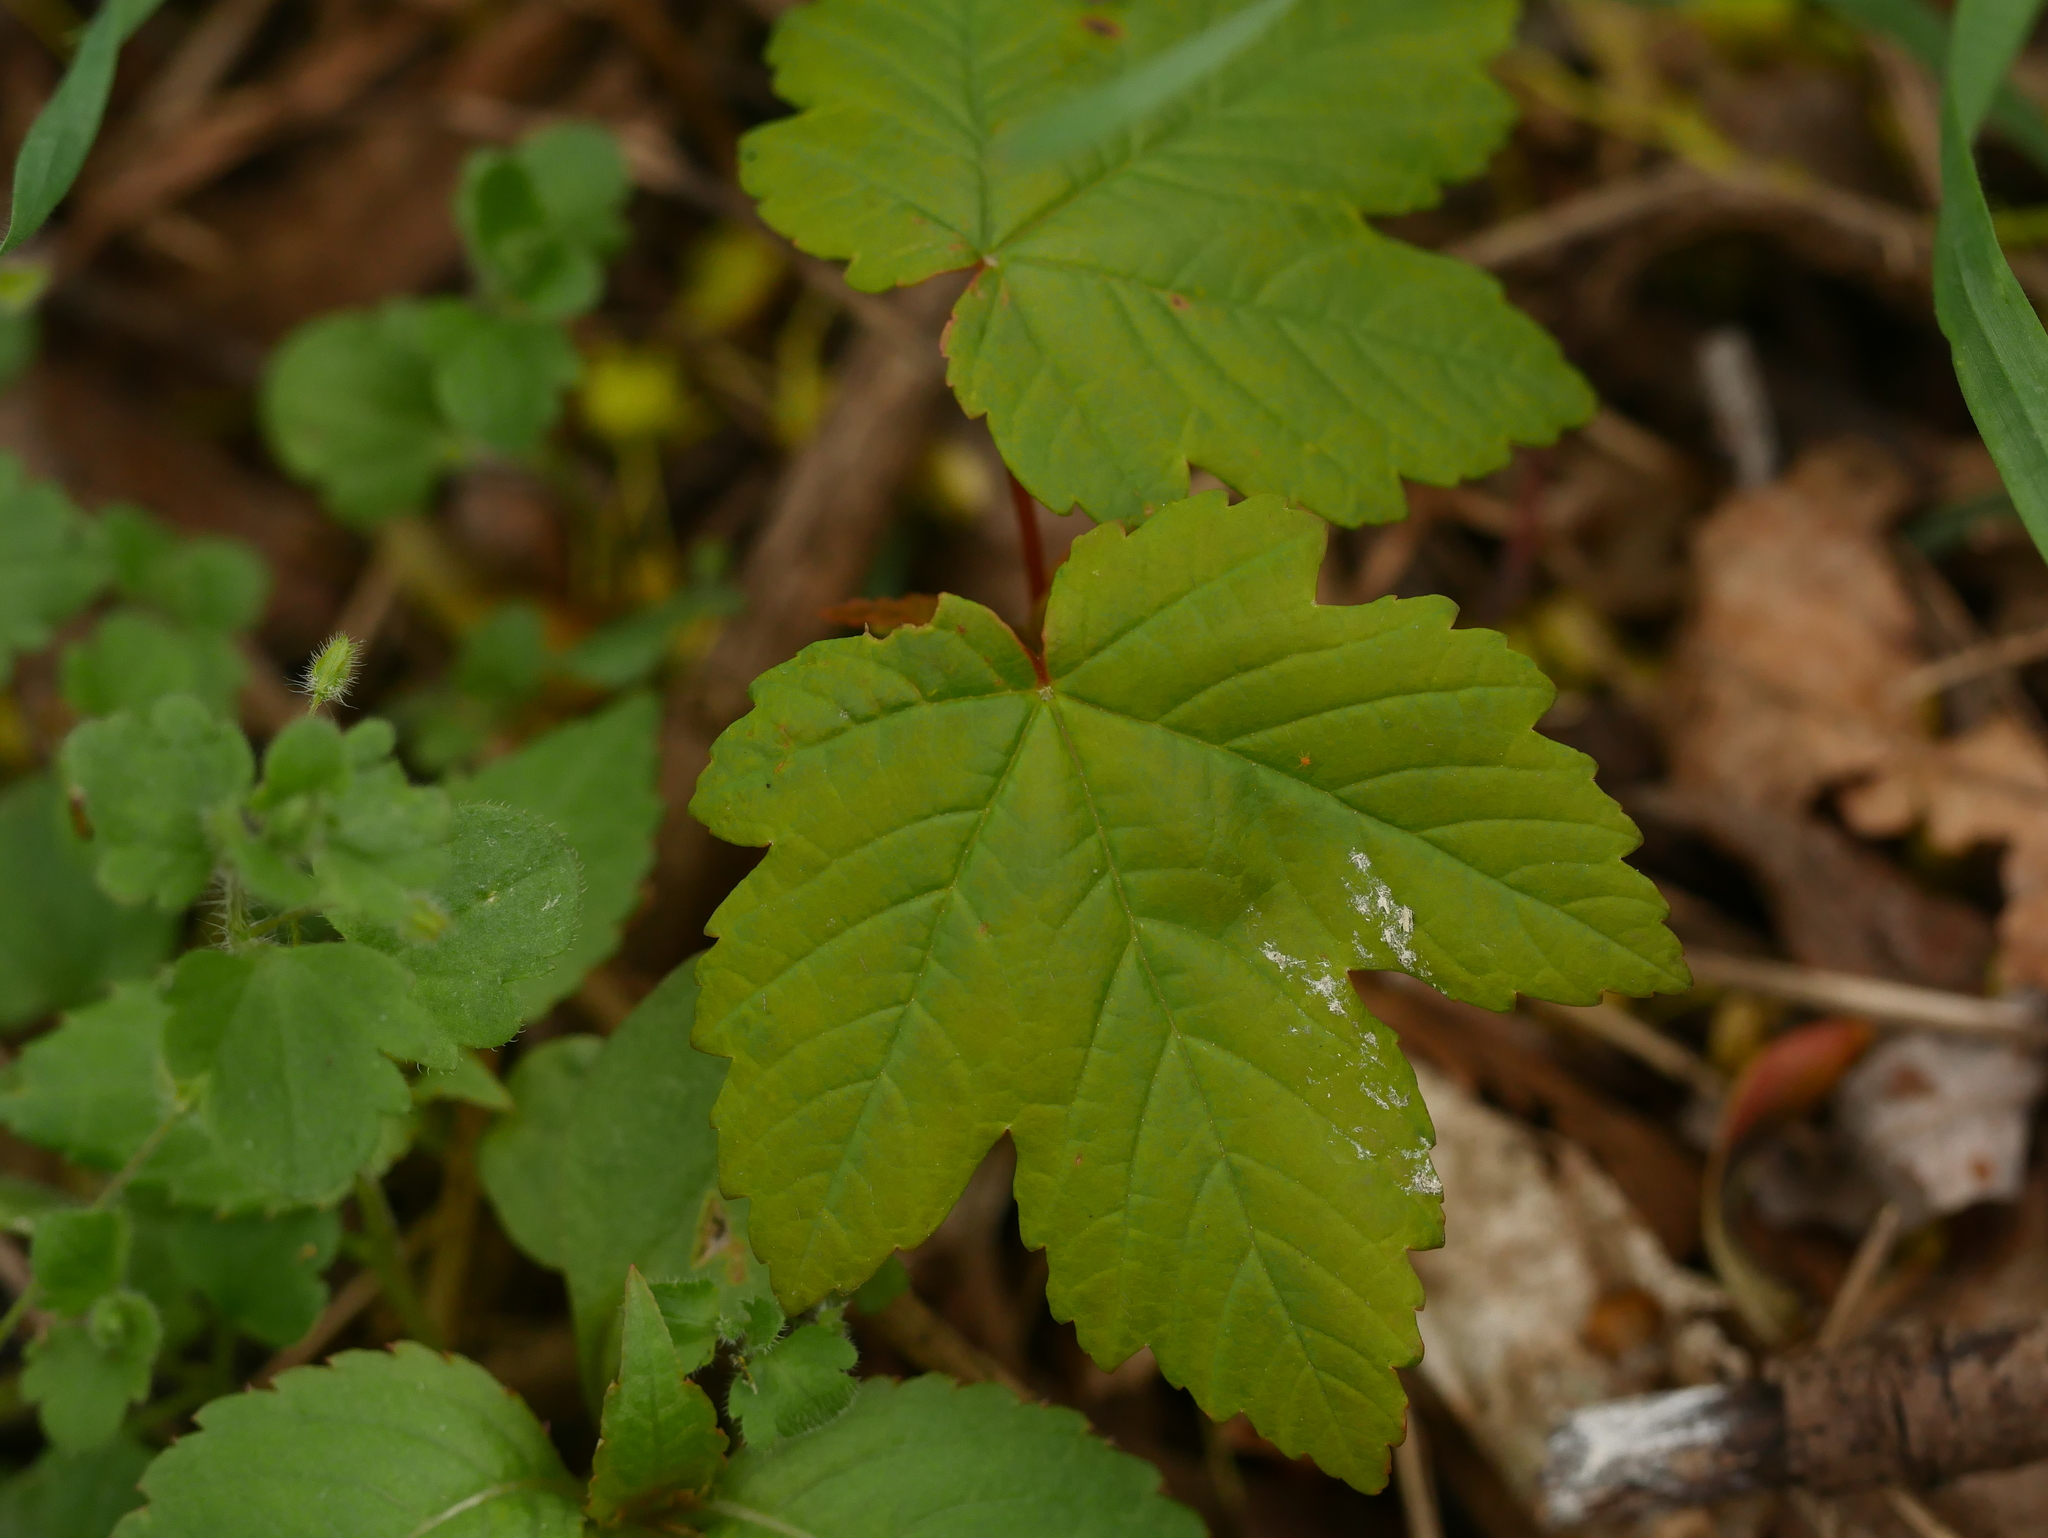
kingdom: Plantae
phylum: Tracheophyta
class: Magnoliopsida
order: Sapindales
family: Sapindaceae
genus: Acer
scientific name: Acer pseudoplatanus
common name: Sycamore
